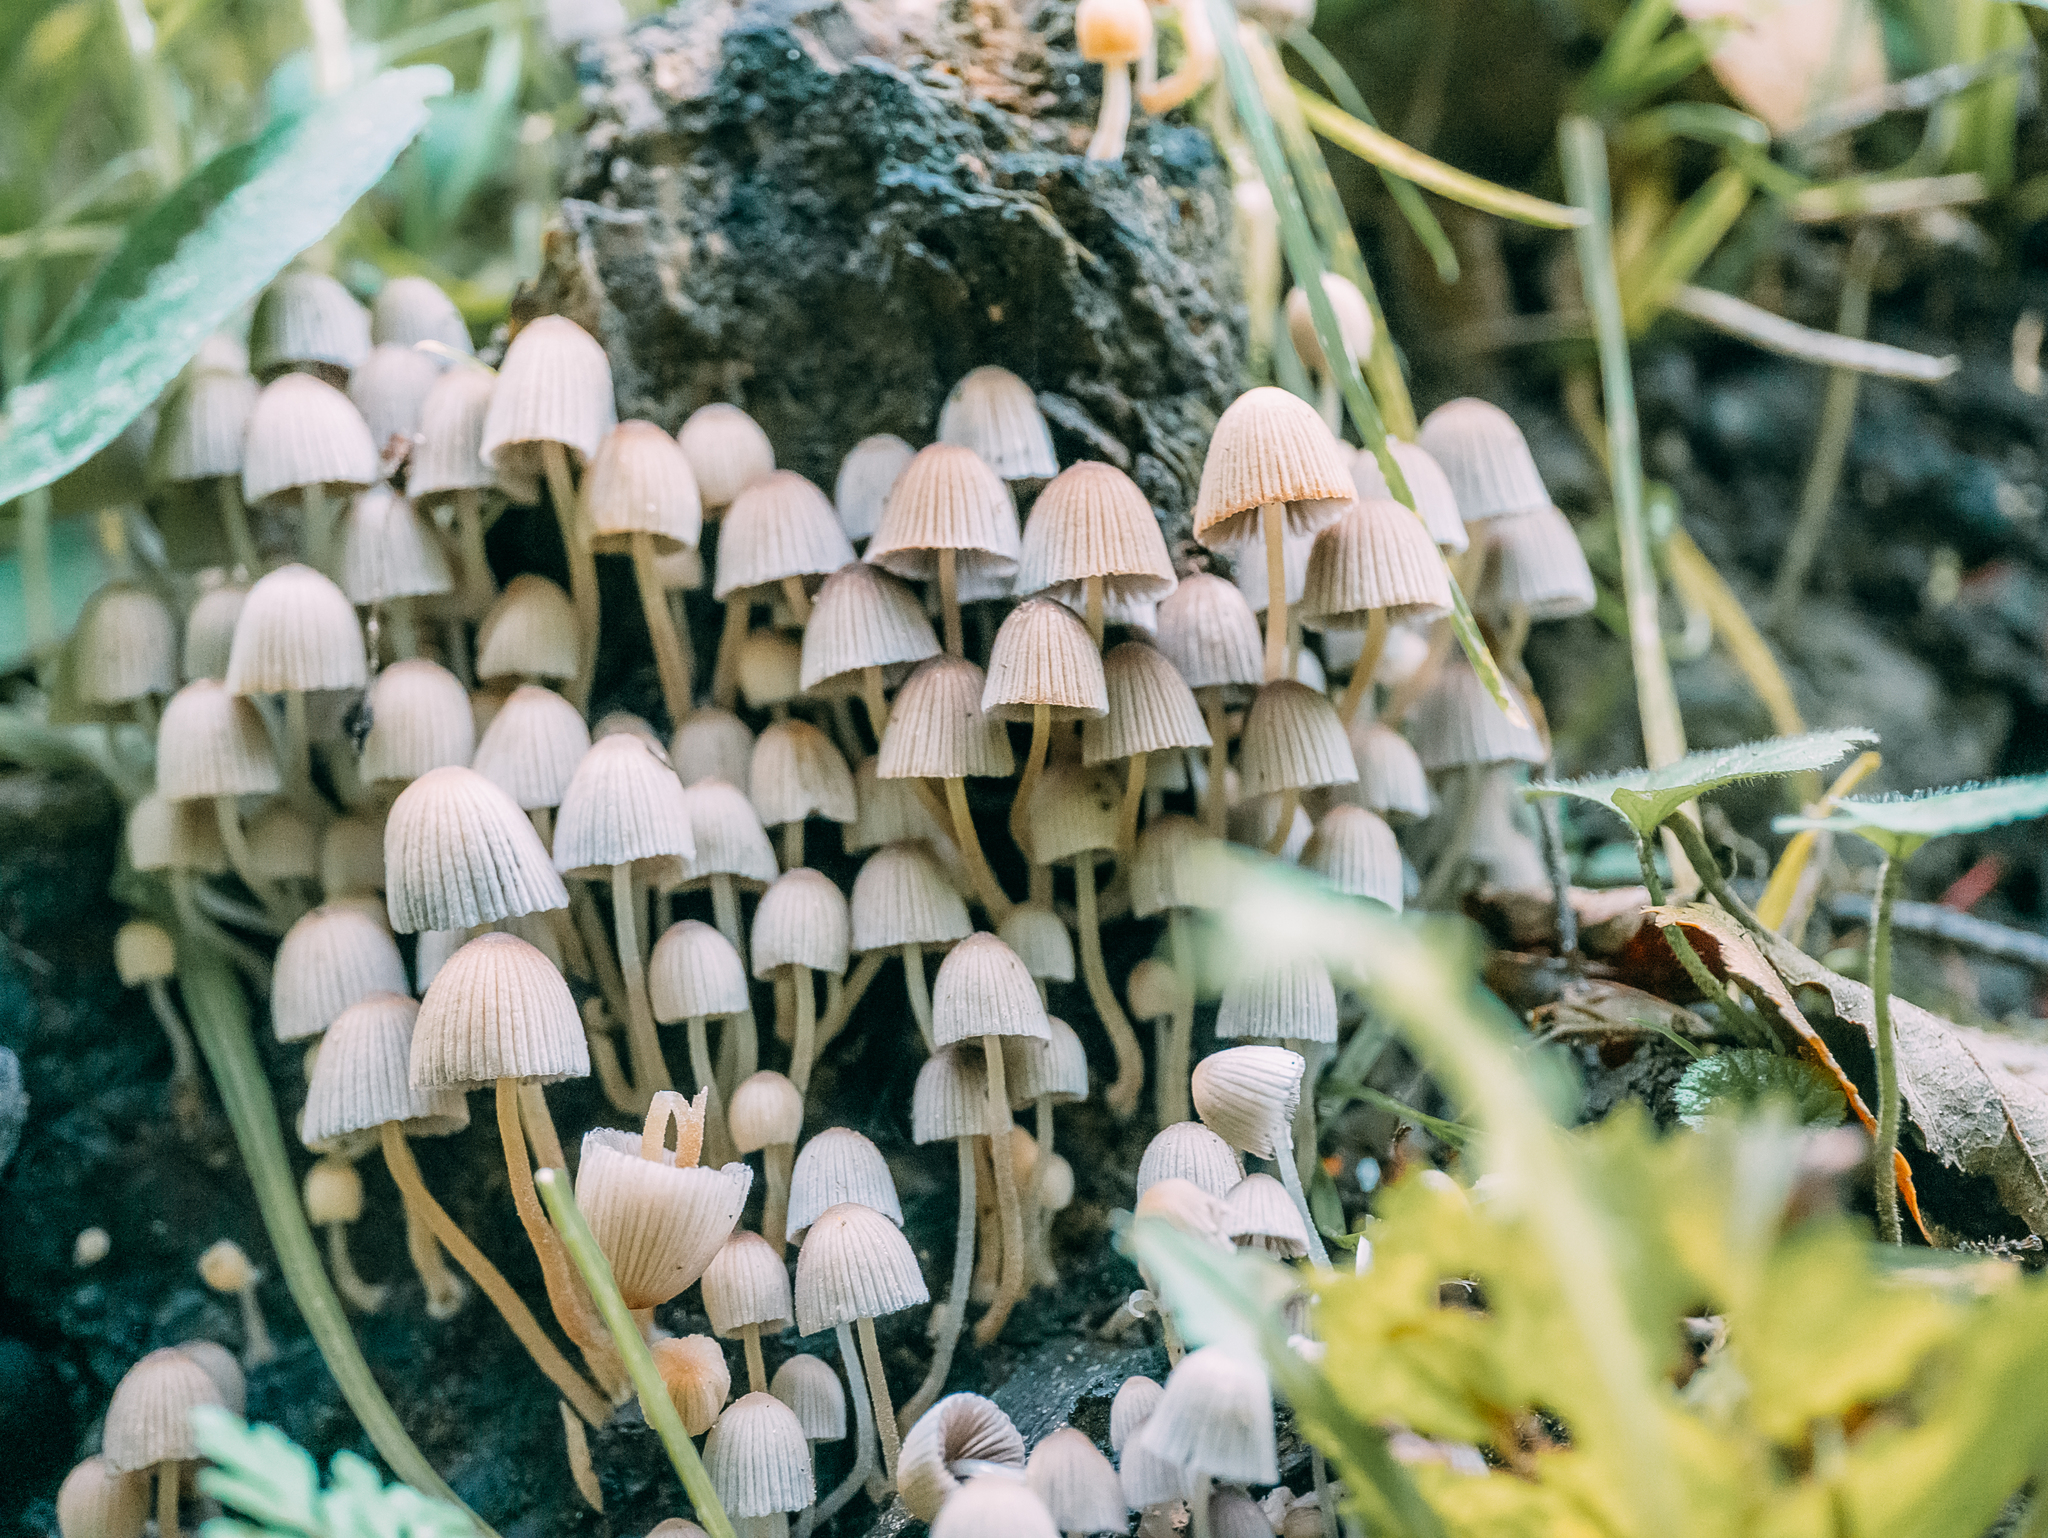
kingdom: Fungi
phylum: Basidiomycota
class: Agaricomycetes
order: Agaricales
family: Psathyrellaceae
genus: Coprinellus
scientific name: Coprinellus disseminatus
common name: Fairies' bonnets
